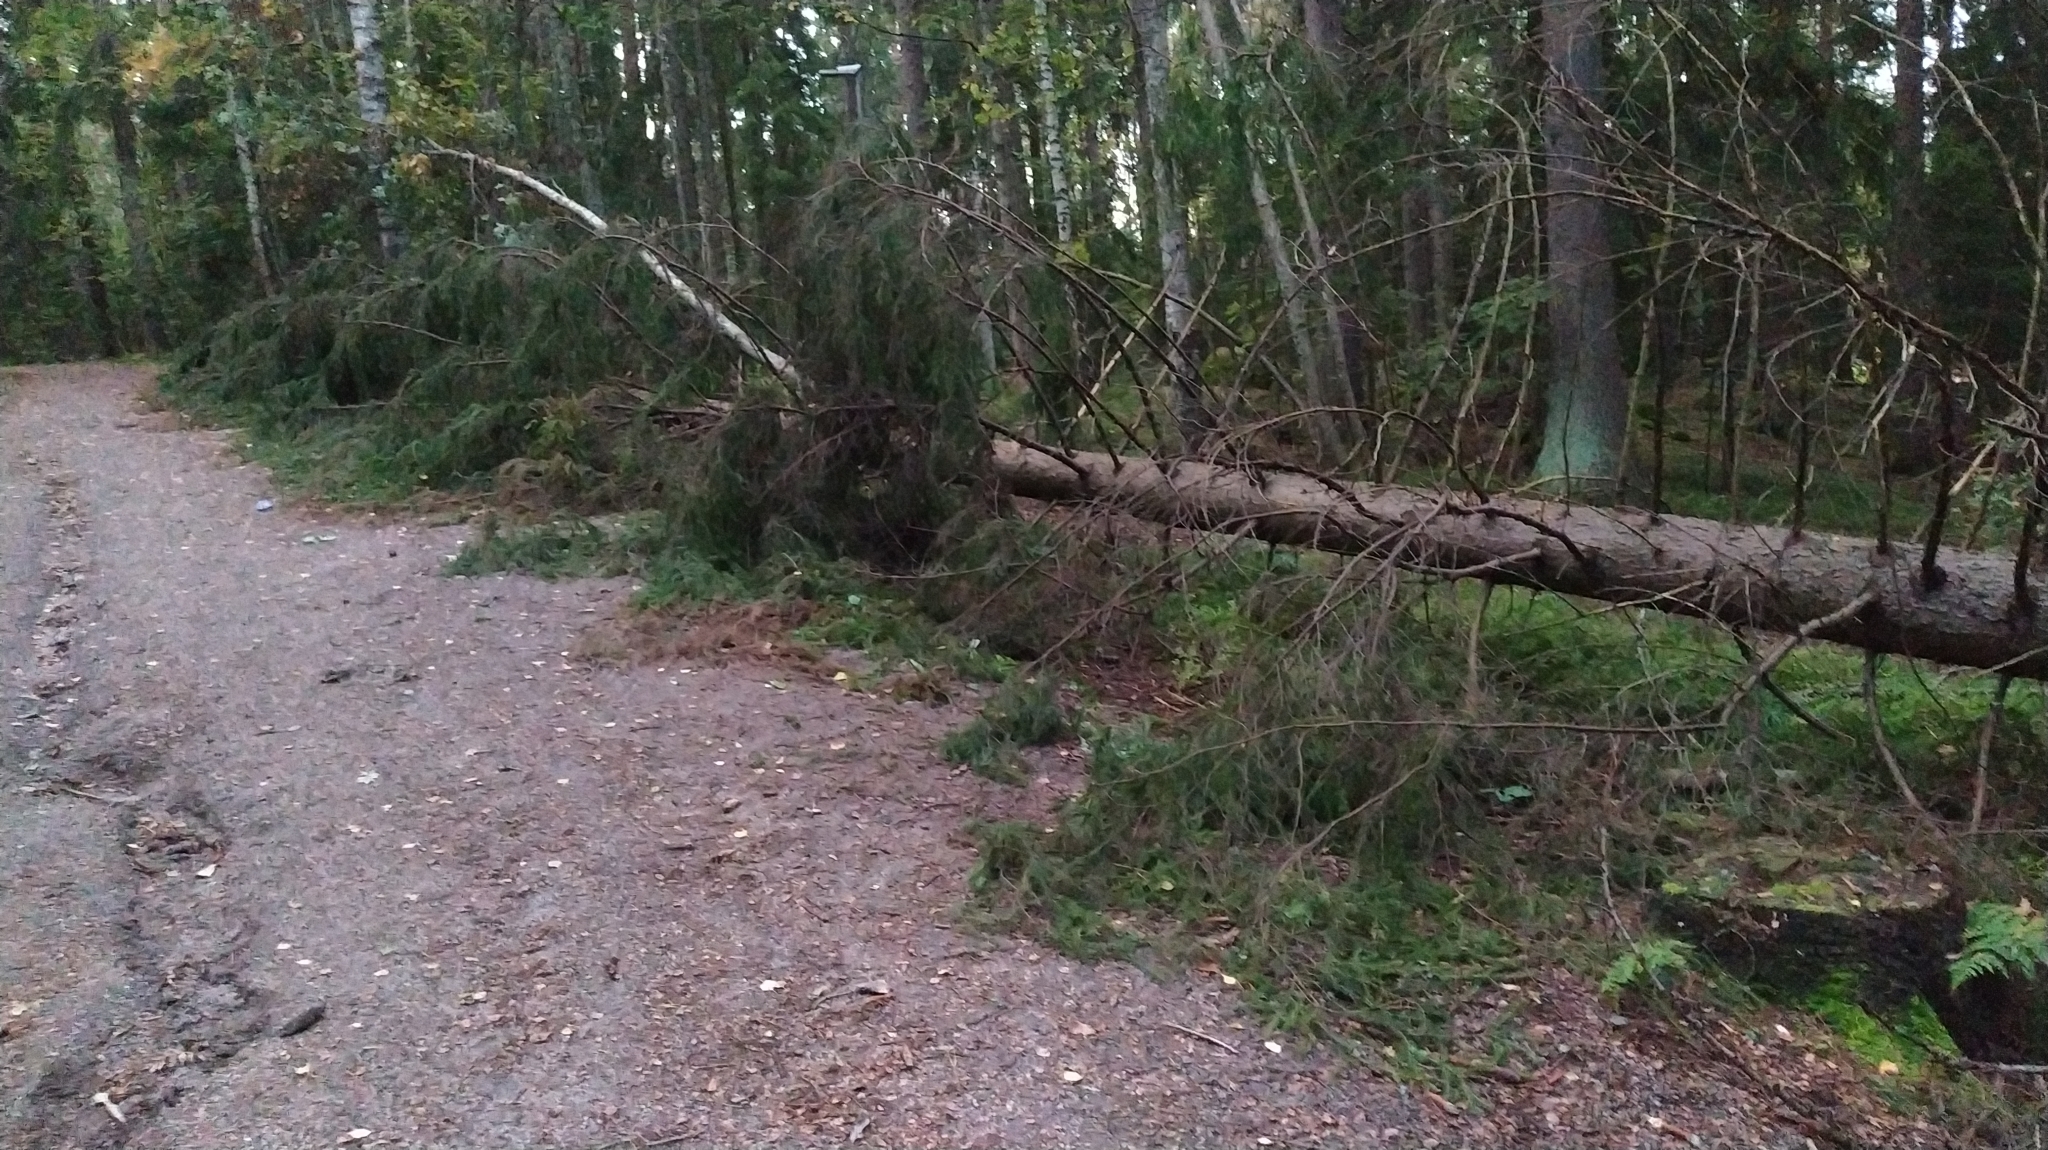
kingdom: Plantae
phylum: Tracheophyta
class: Pinopsida
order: Pinales
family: Pinaceae
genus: Picea
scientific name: Picea abies
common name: Norway spruce
